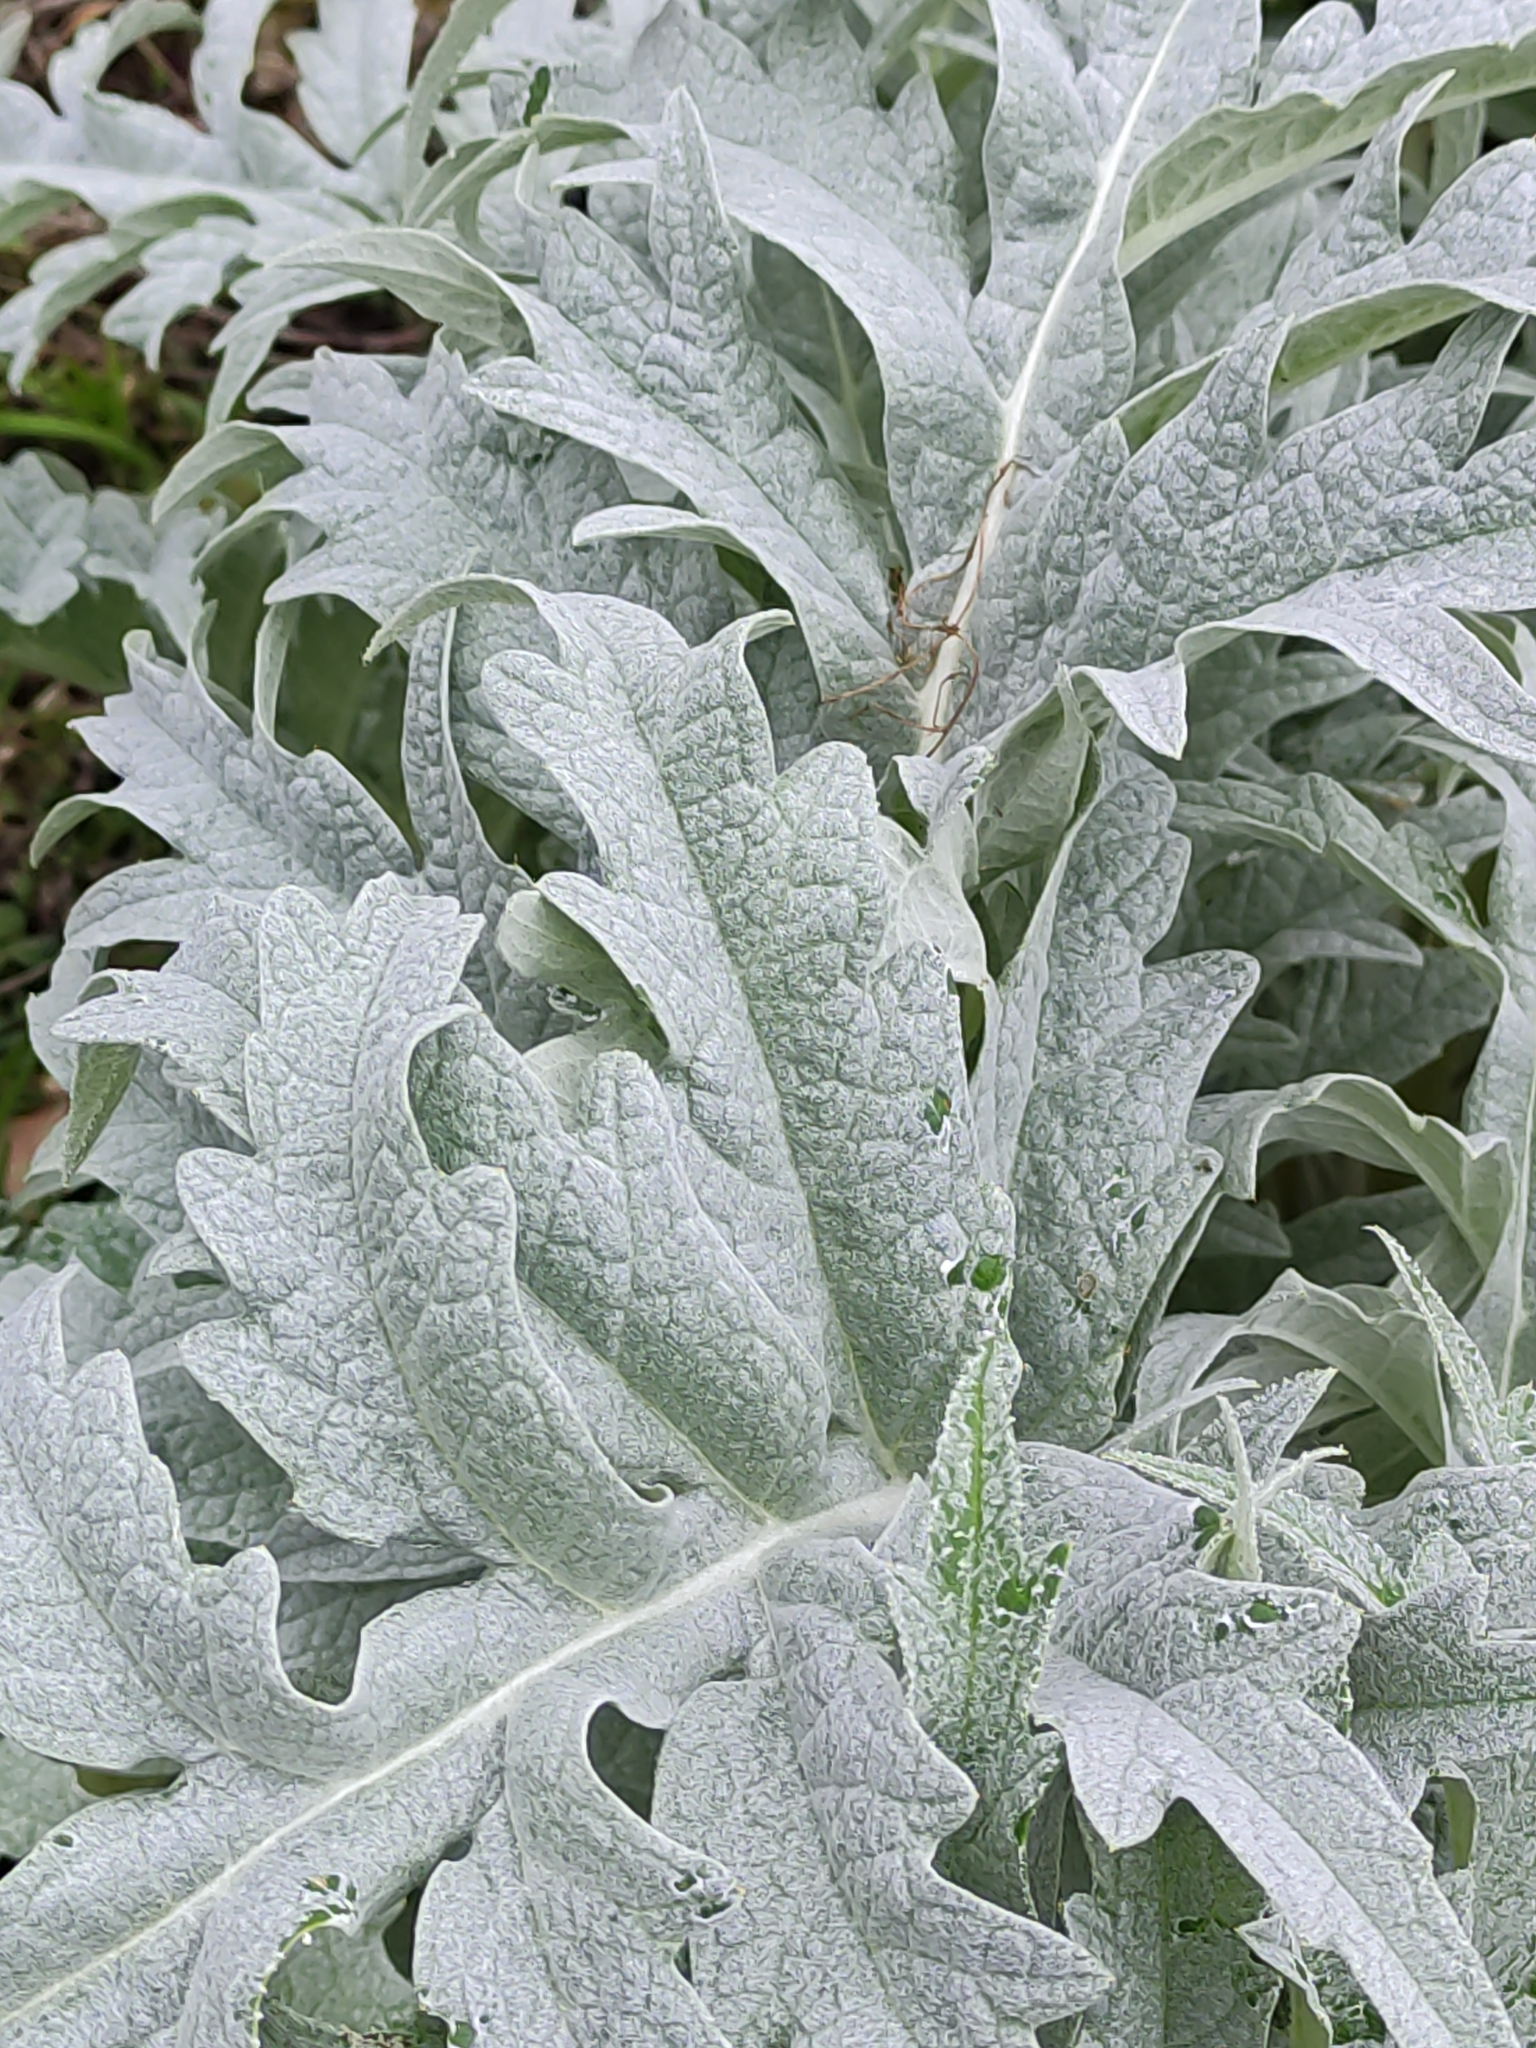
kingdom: Plantae
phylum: Tracheophyta
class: Magnoliopsida
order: Asterales
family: Asteraceae
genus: Cynara
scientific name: Cynara scolymus
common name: Globe artichoke
